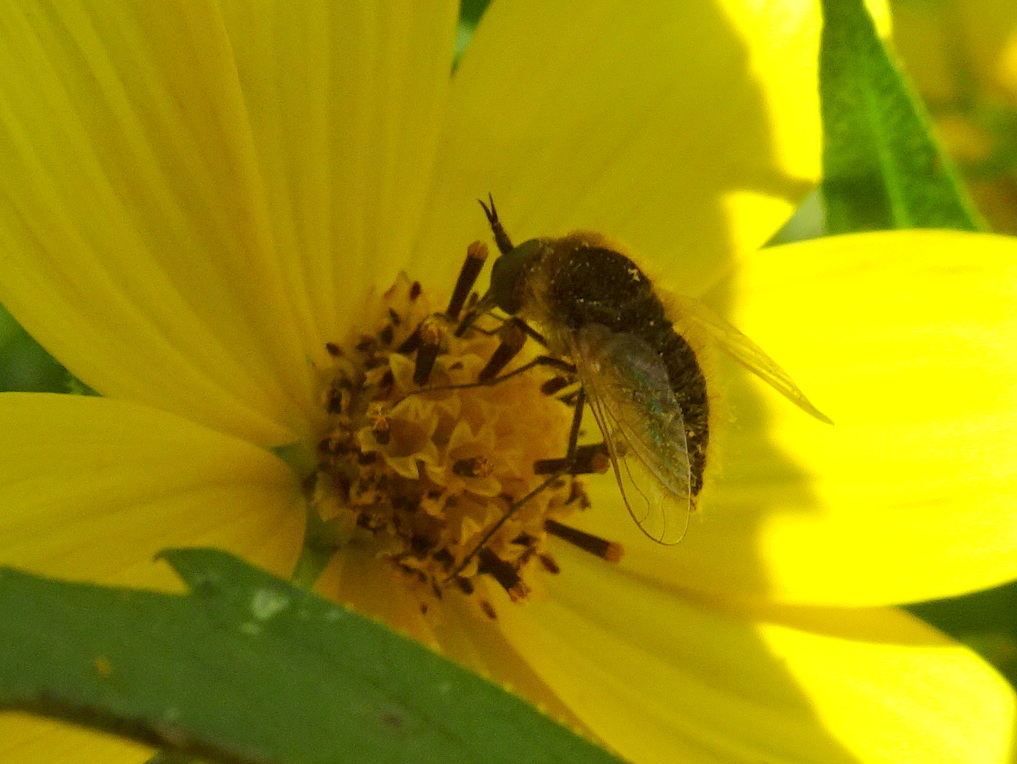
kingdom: Animalia
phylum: Arthropoda
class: Insecta
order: Diptera
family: Bombyliidae
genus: Sparnopolius
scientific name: Sparnopolius confusus
